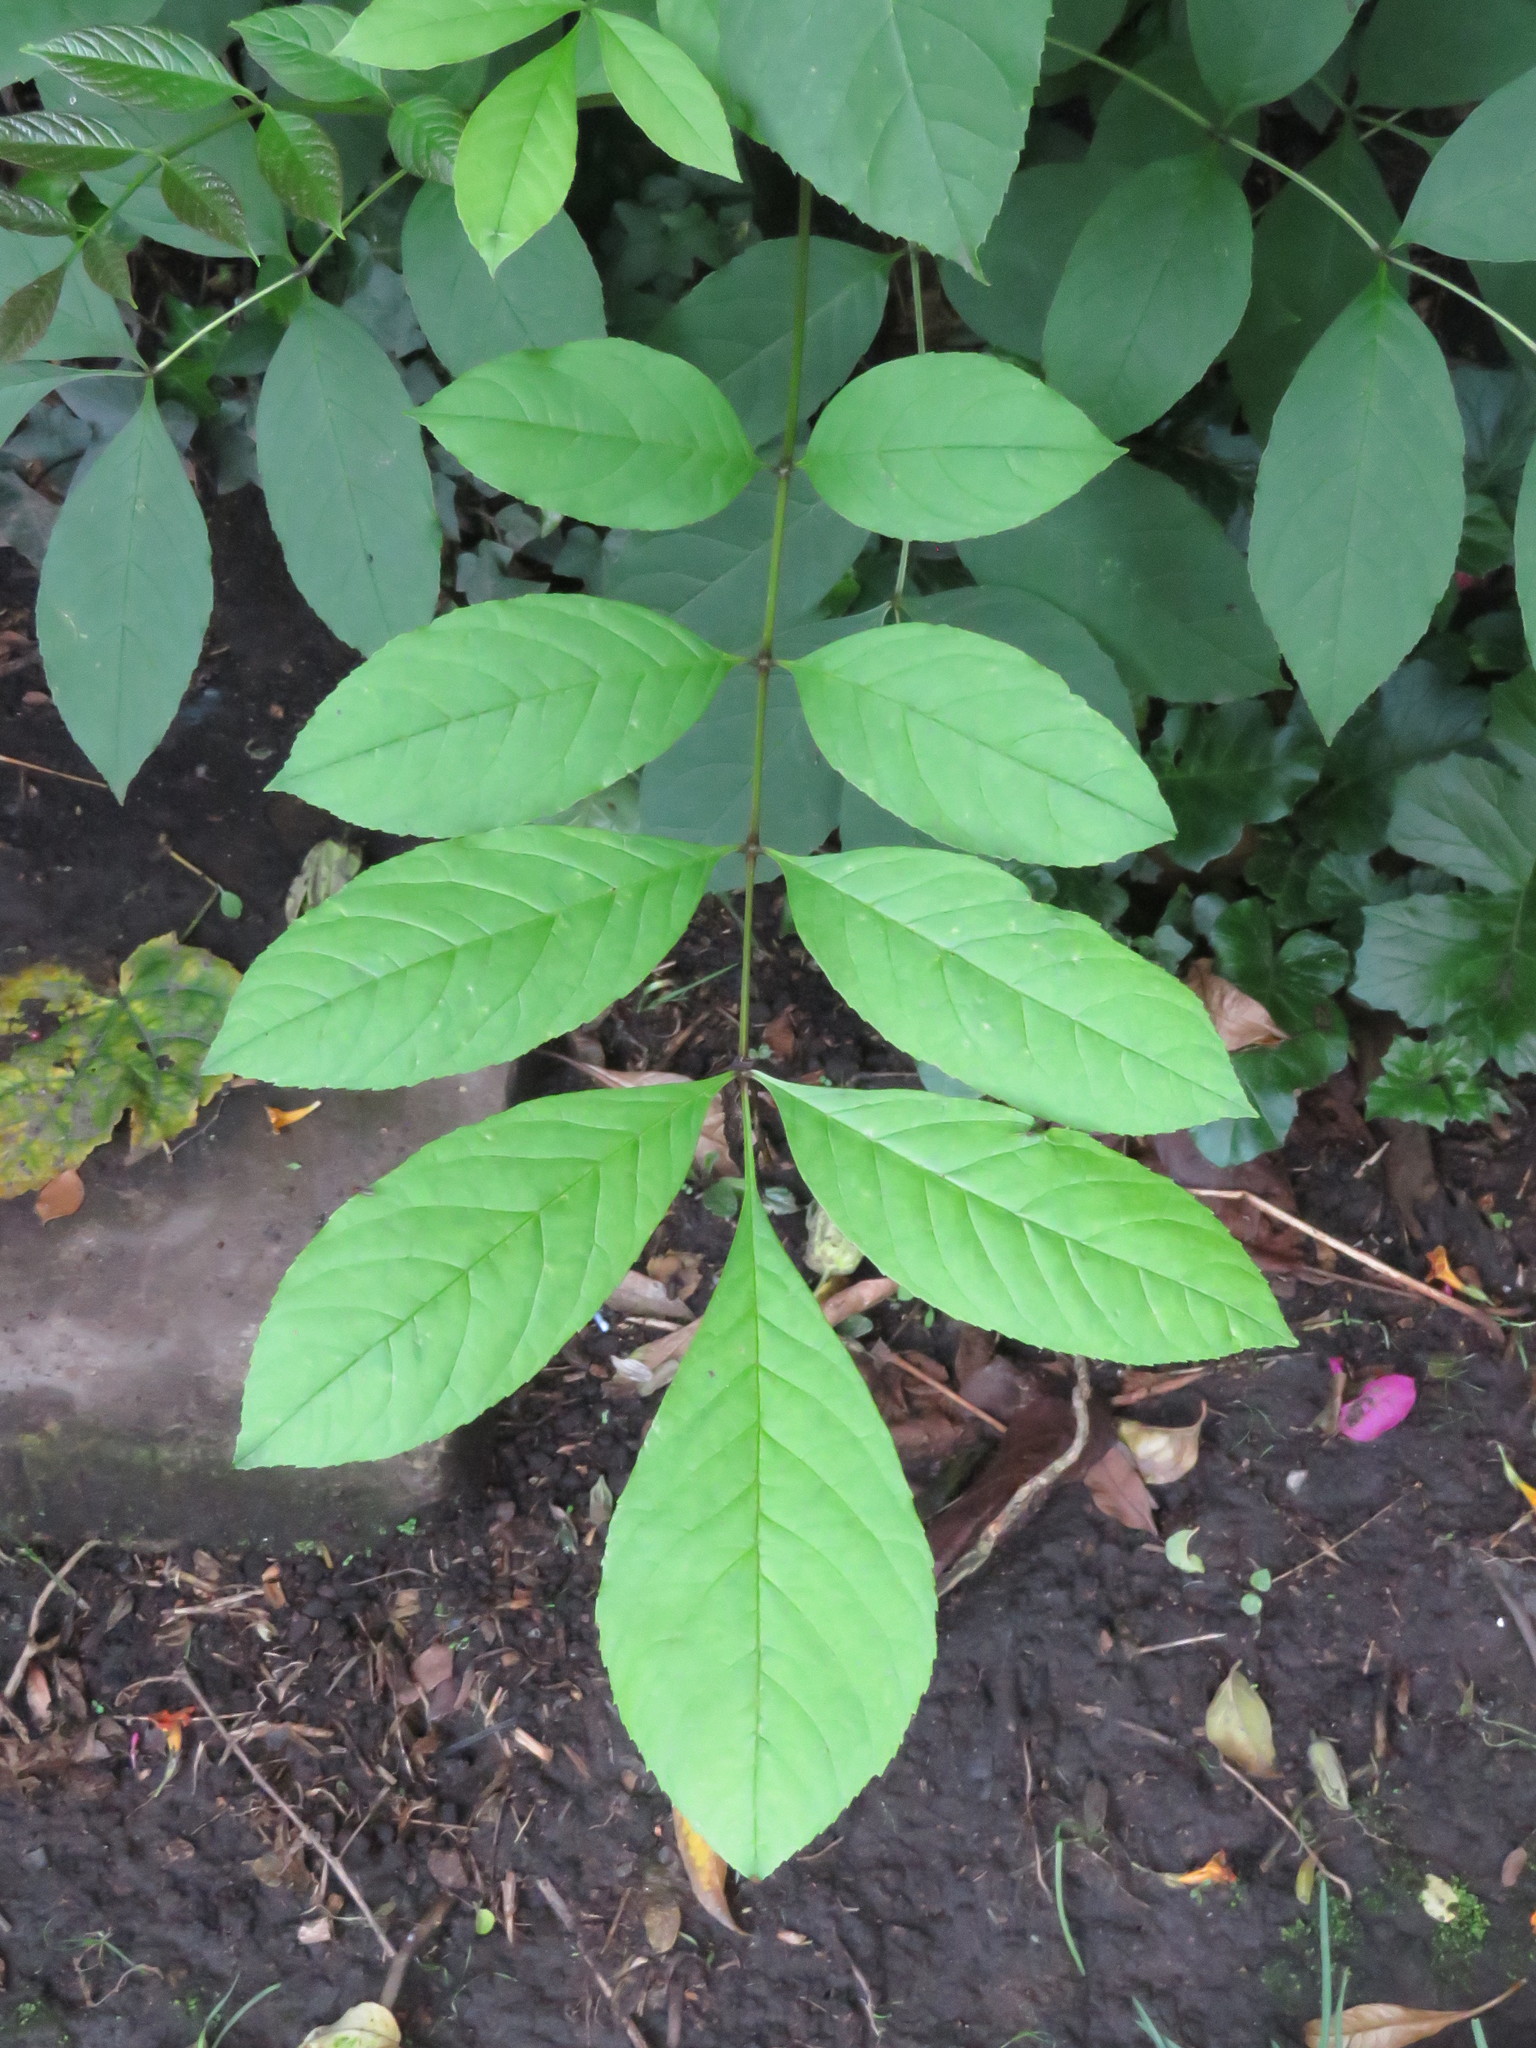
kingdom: Plantae
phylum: Tracheophyta
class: Magnoliopsida
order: Lamiales
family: Oleaceae
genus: Fraxinus
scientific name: Fraxinus uhdei
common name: Shamel ash
